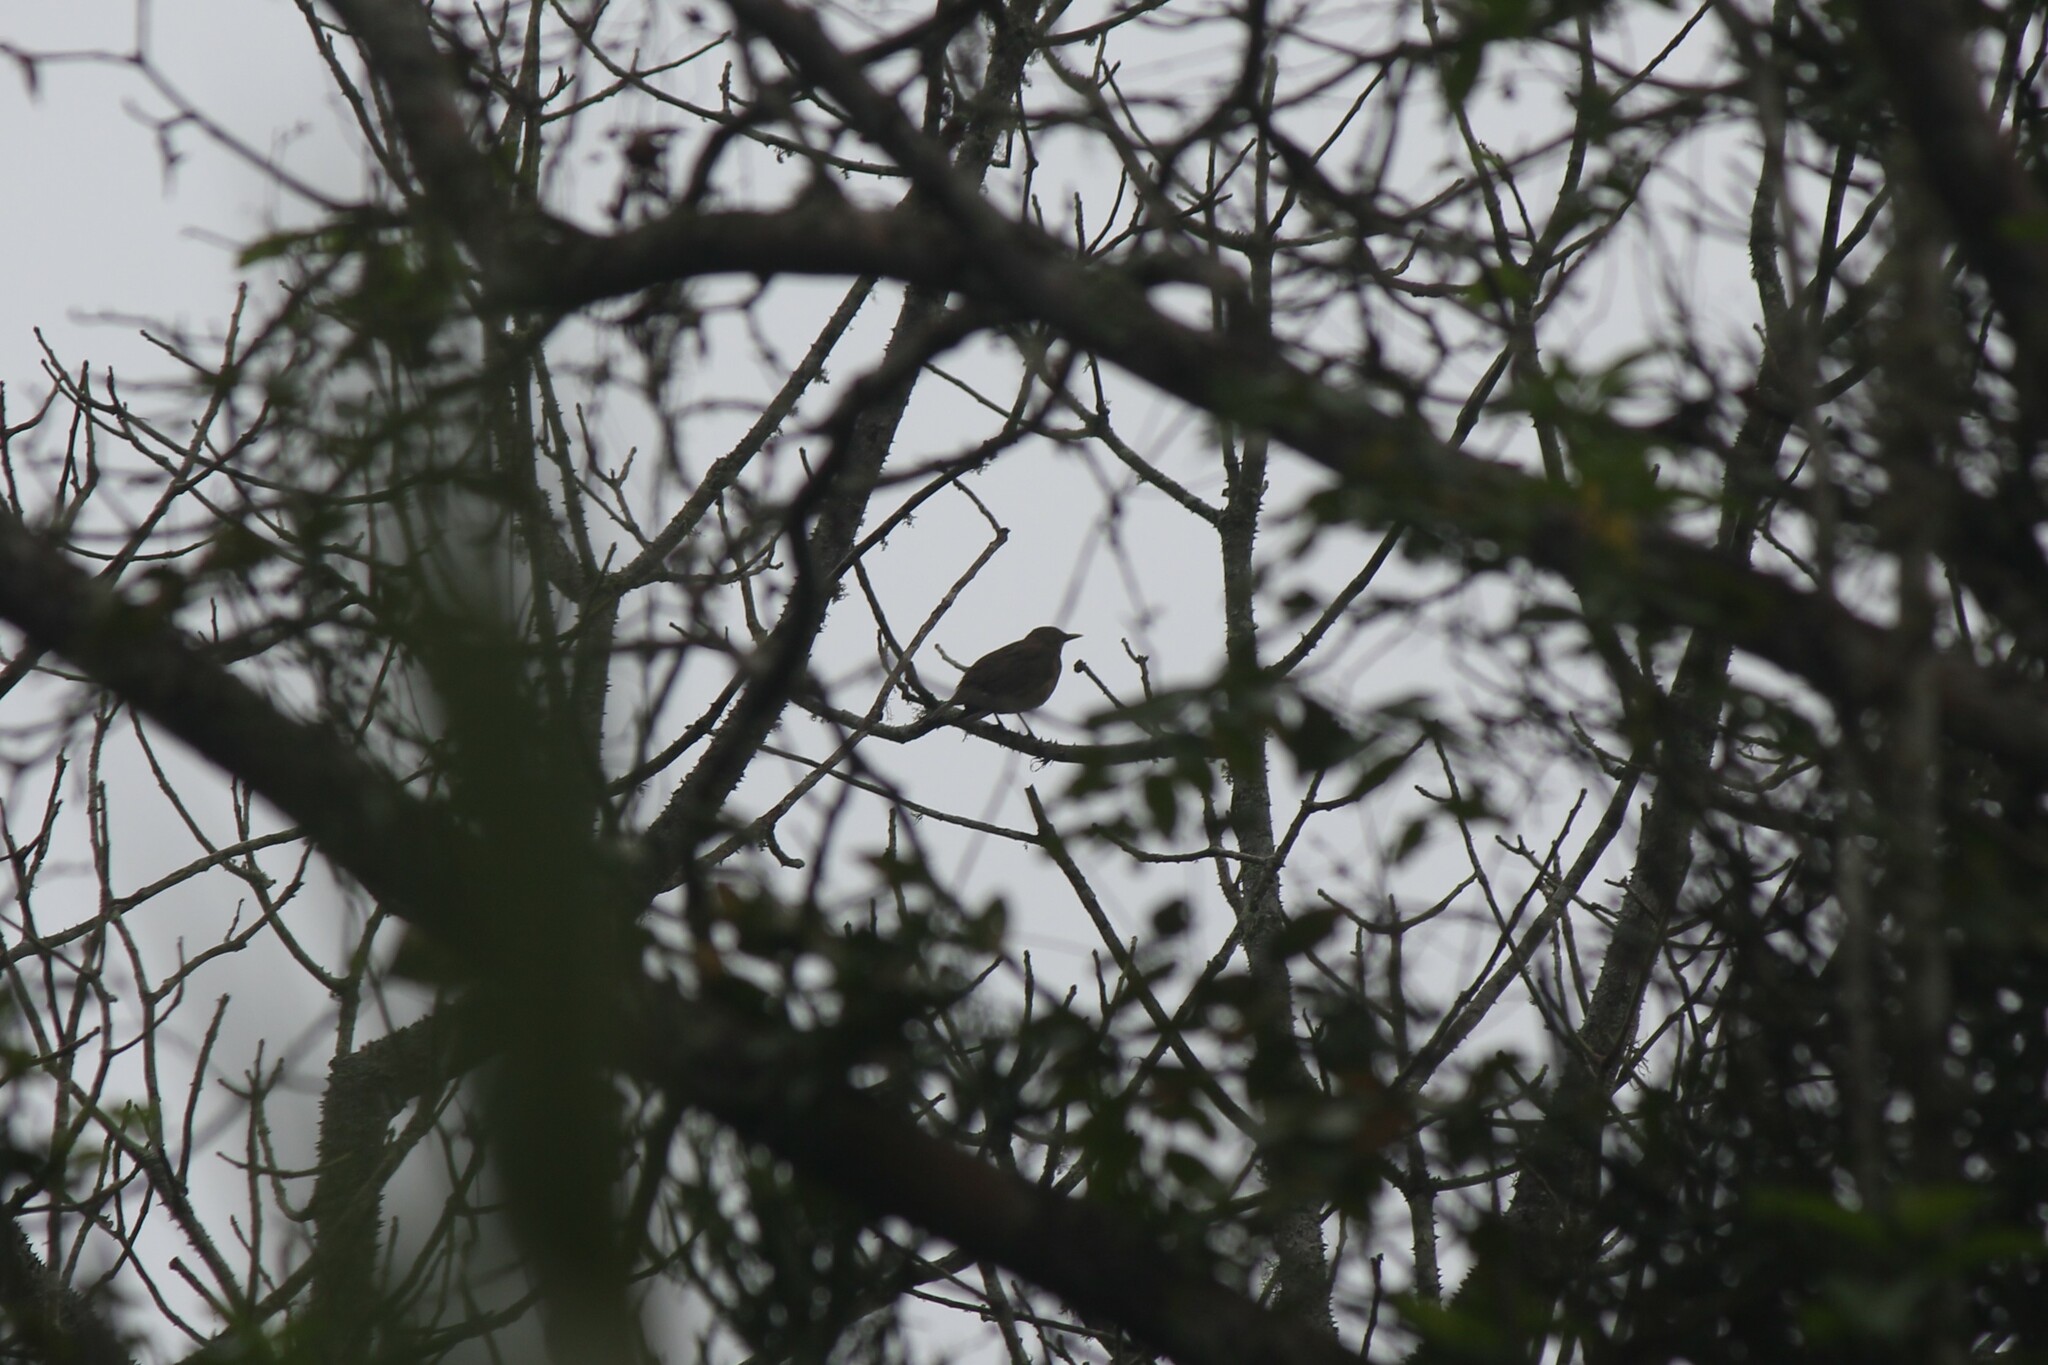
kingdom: Animalia
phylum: Chordata
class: Aves
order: Passeriformes
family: Turdidae
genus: Turdus
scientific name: Turdus maculirostris
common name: Ecuadorian thrush
